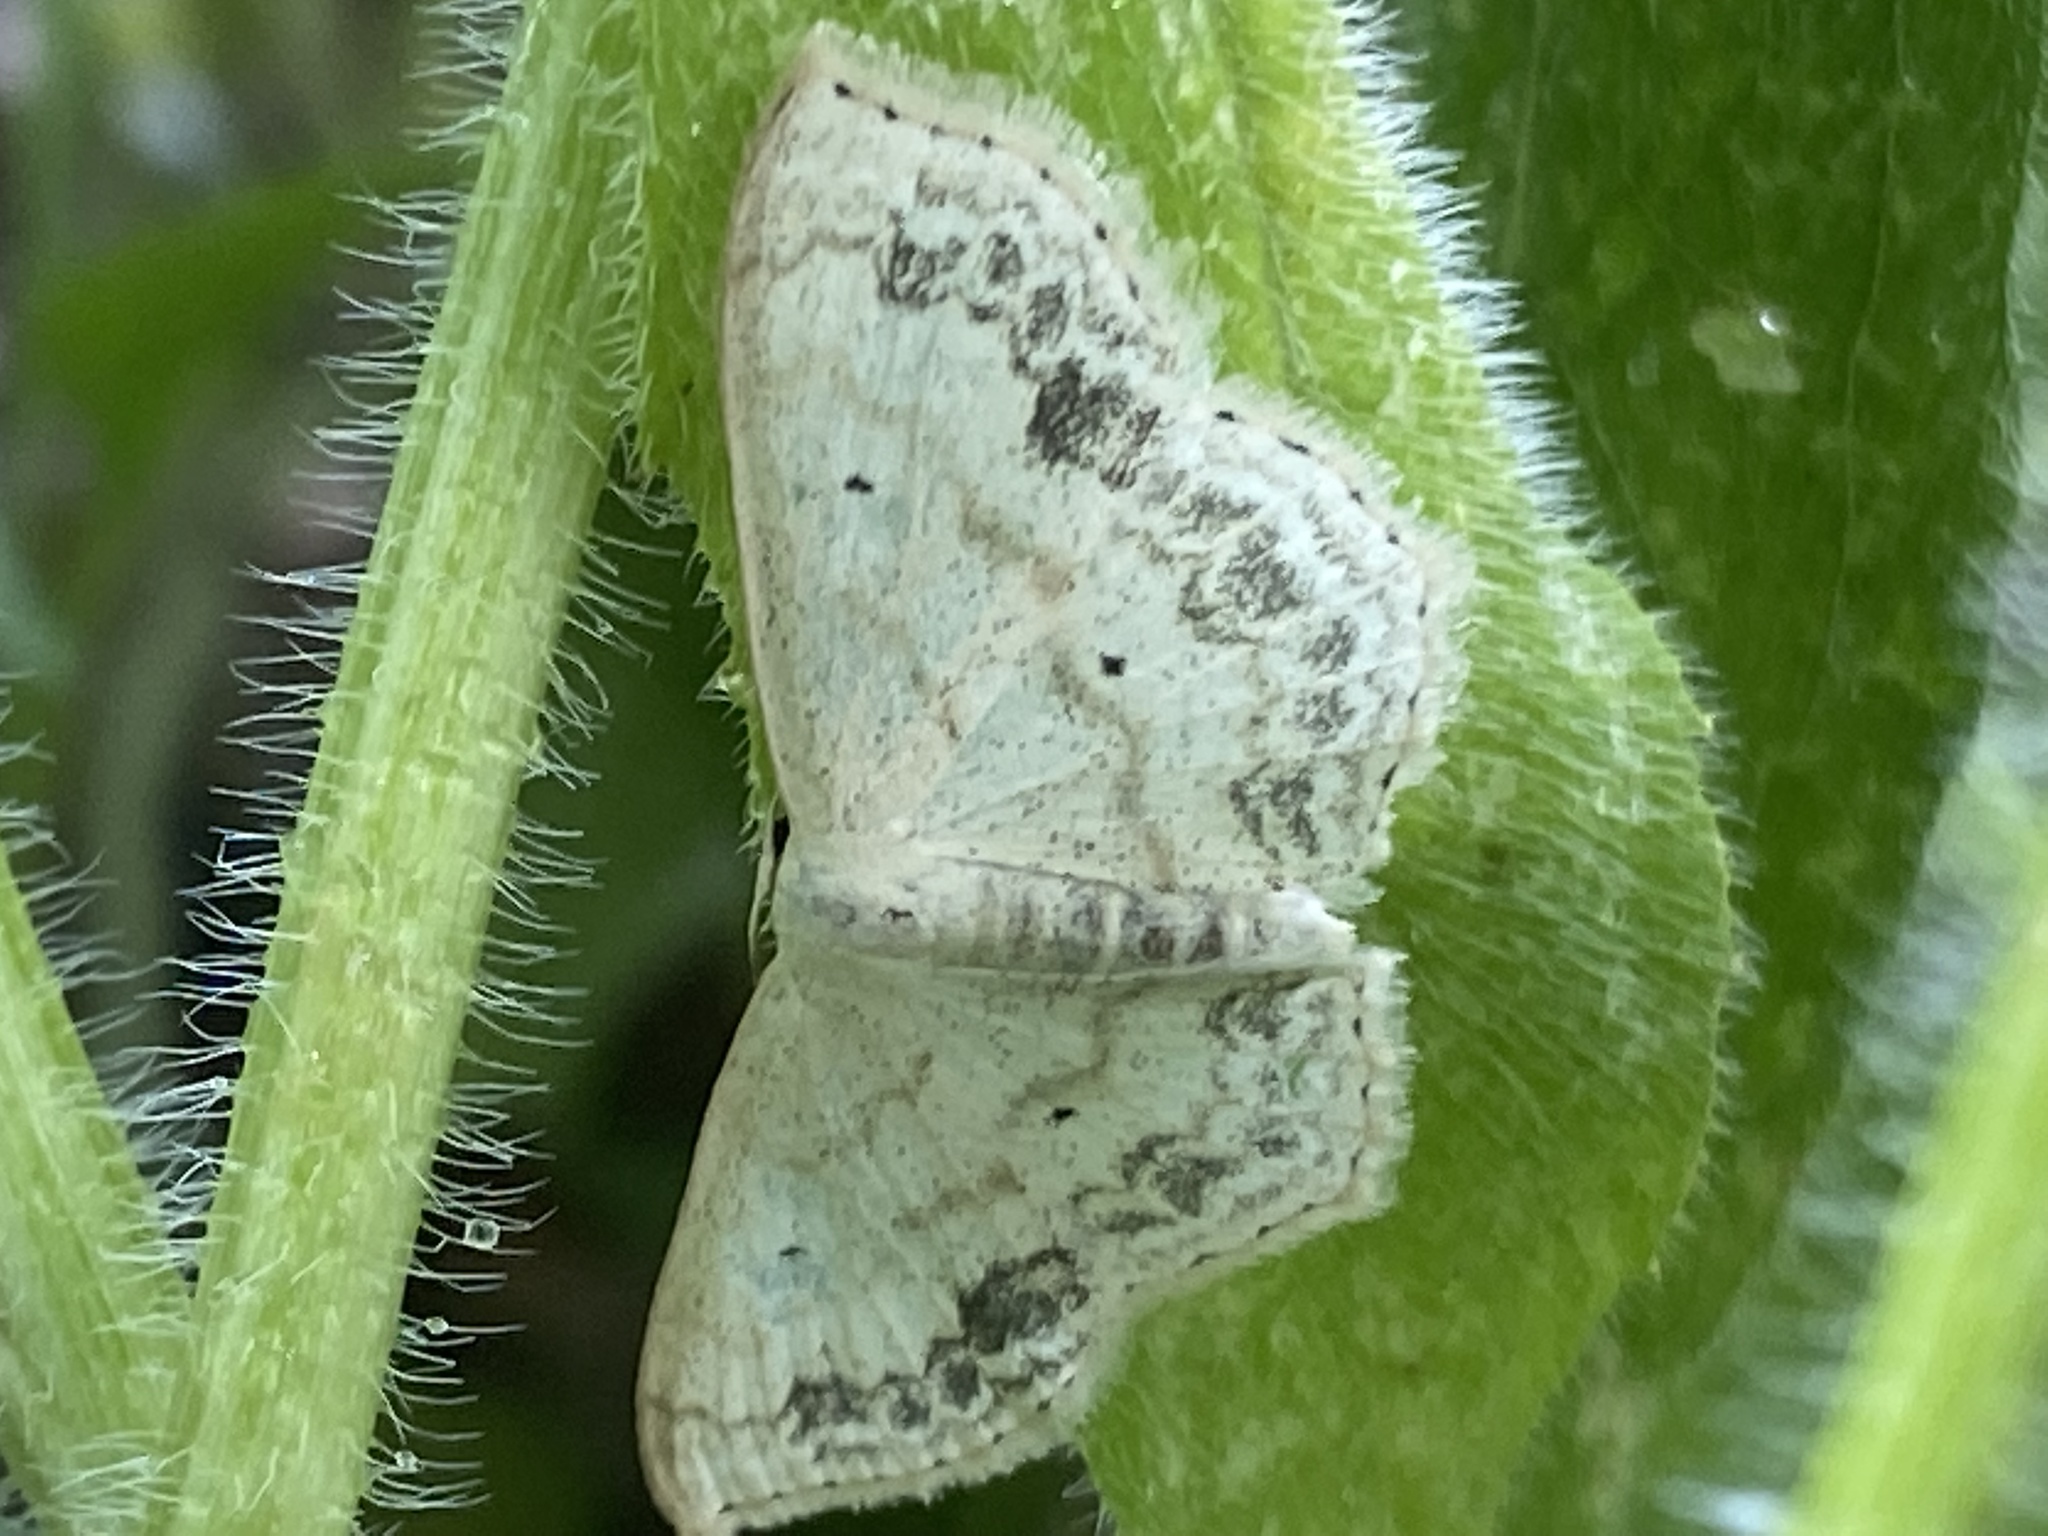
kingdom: Animalia
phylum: Arthropoda
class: Insecta
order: Lepidoptera
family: Geometridae
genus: Scopula
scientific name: Scopula limboundata
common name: Large lace border
